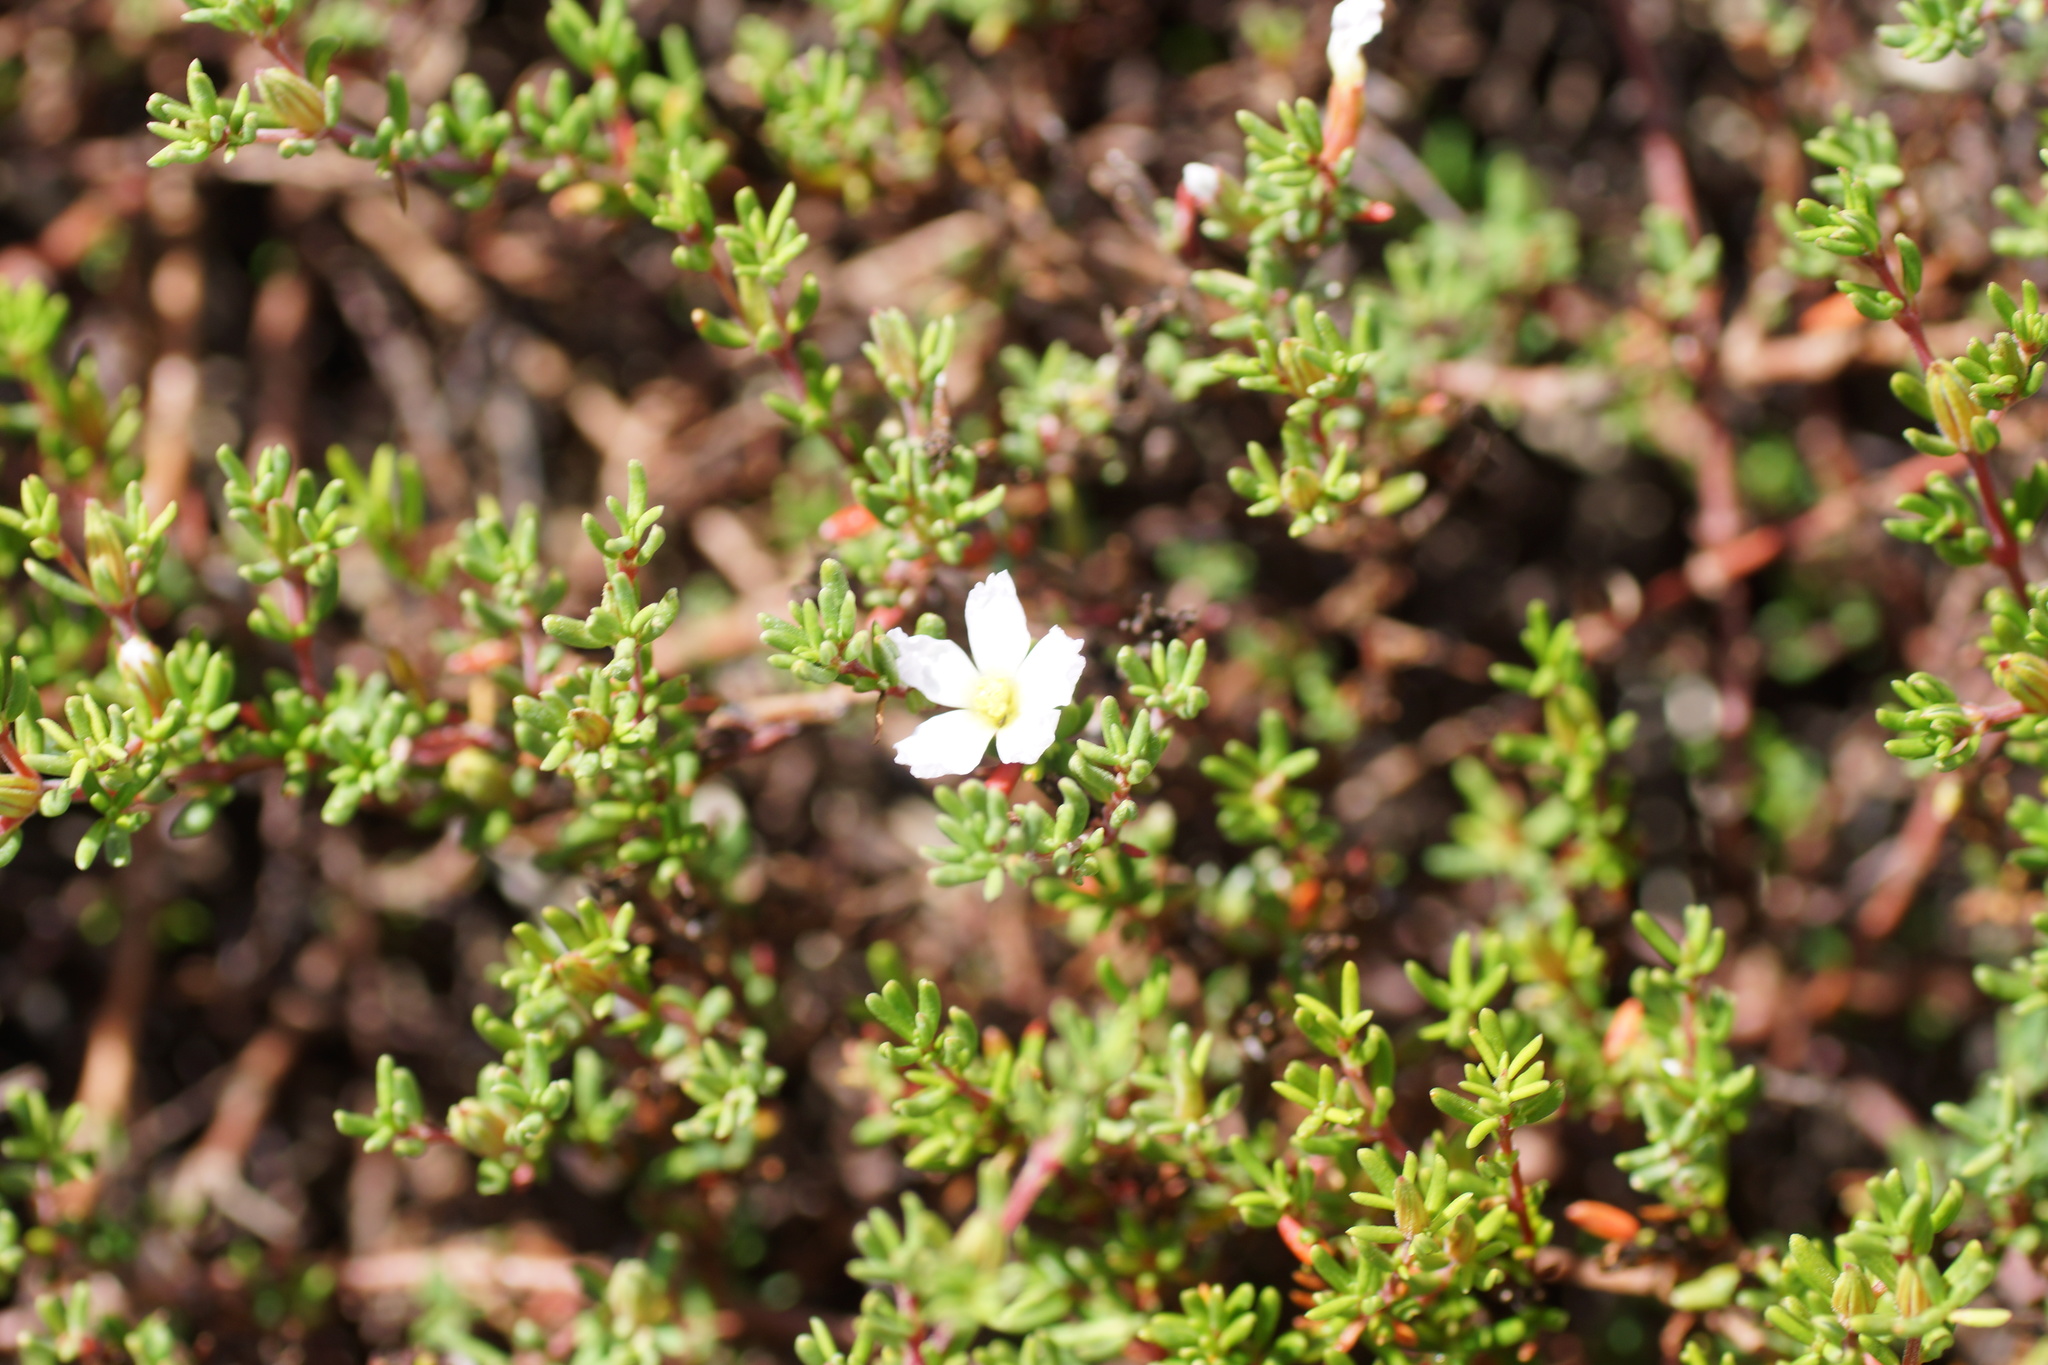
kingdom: Plantae
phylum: Tracheophyta
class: Magnoliopsida
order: Caryophyllales
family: Frankeniaceae
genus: Frankenia
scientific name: Frankenia pauciflora
